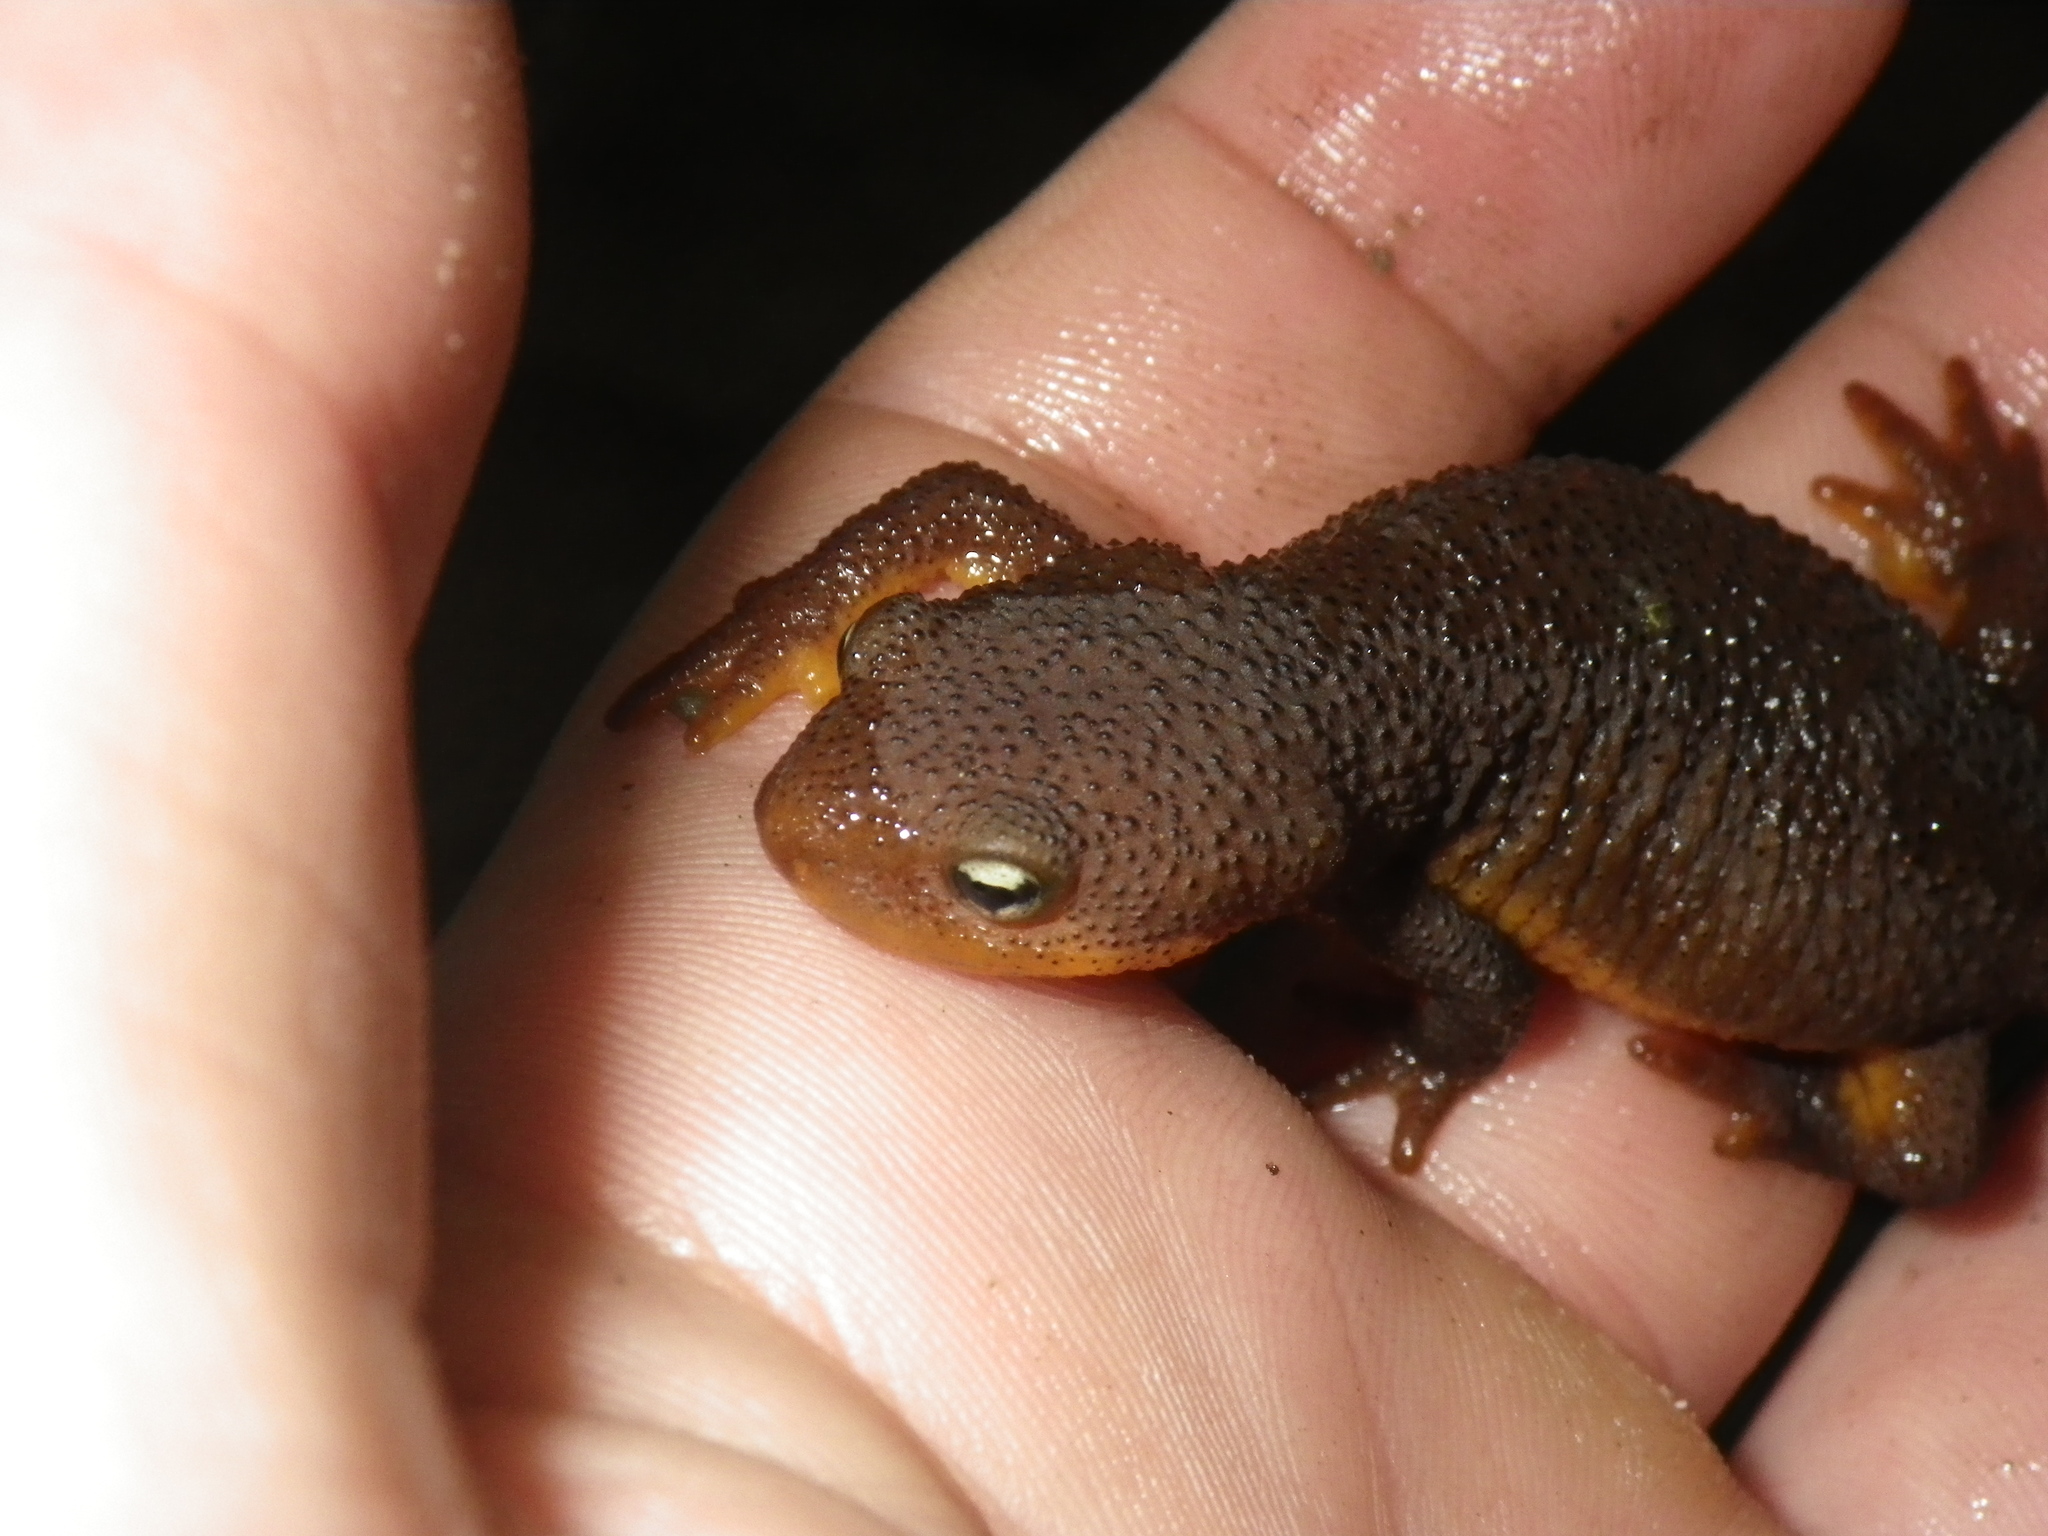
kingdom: Animalia
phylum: Chordata
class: Amphibia
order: Caudata
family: Salamandridae
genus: Taricha
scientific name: Taricha torosa
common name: California newt
